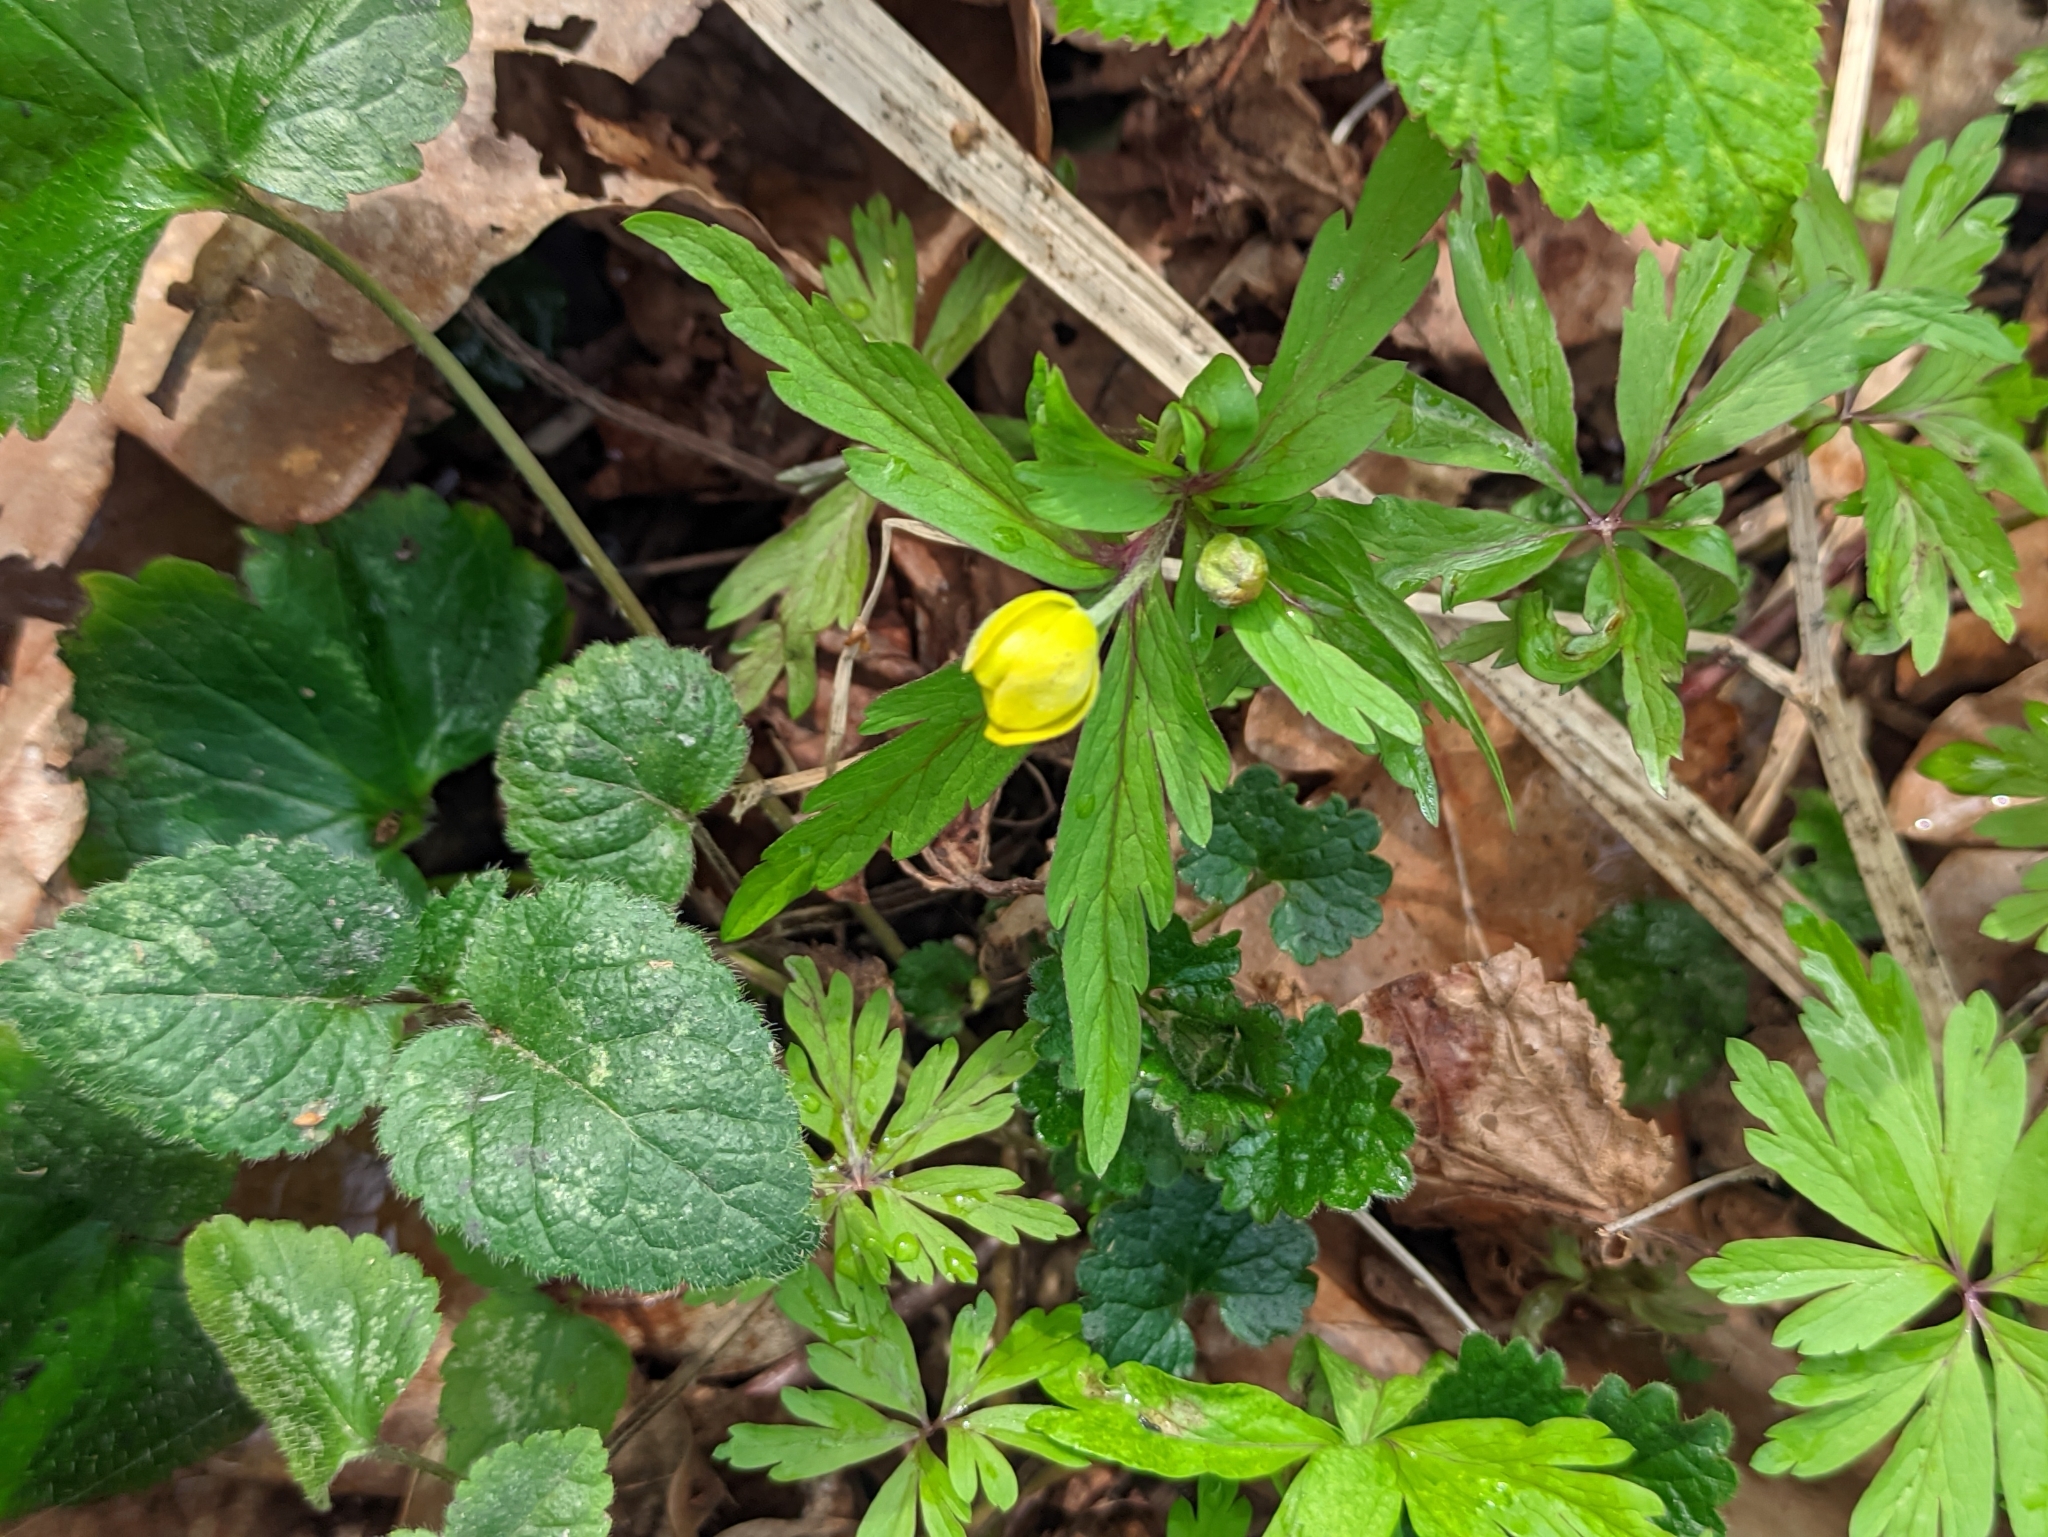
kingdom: Plantae
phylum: Tracheophyta
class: Magnoliopsida
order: Ranunculales
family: Ranunculaceae
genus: Anemone
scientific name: Anemone ranunculoides
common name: Yellow anemone
